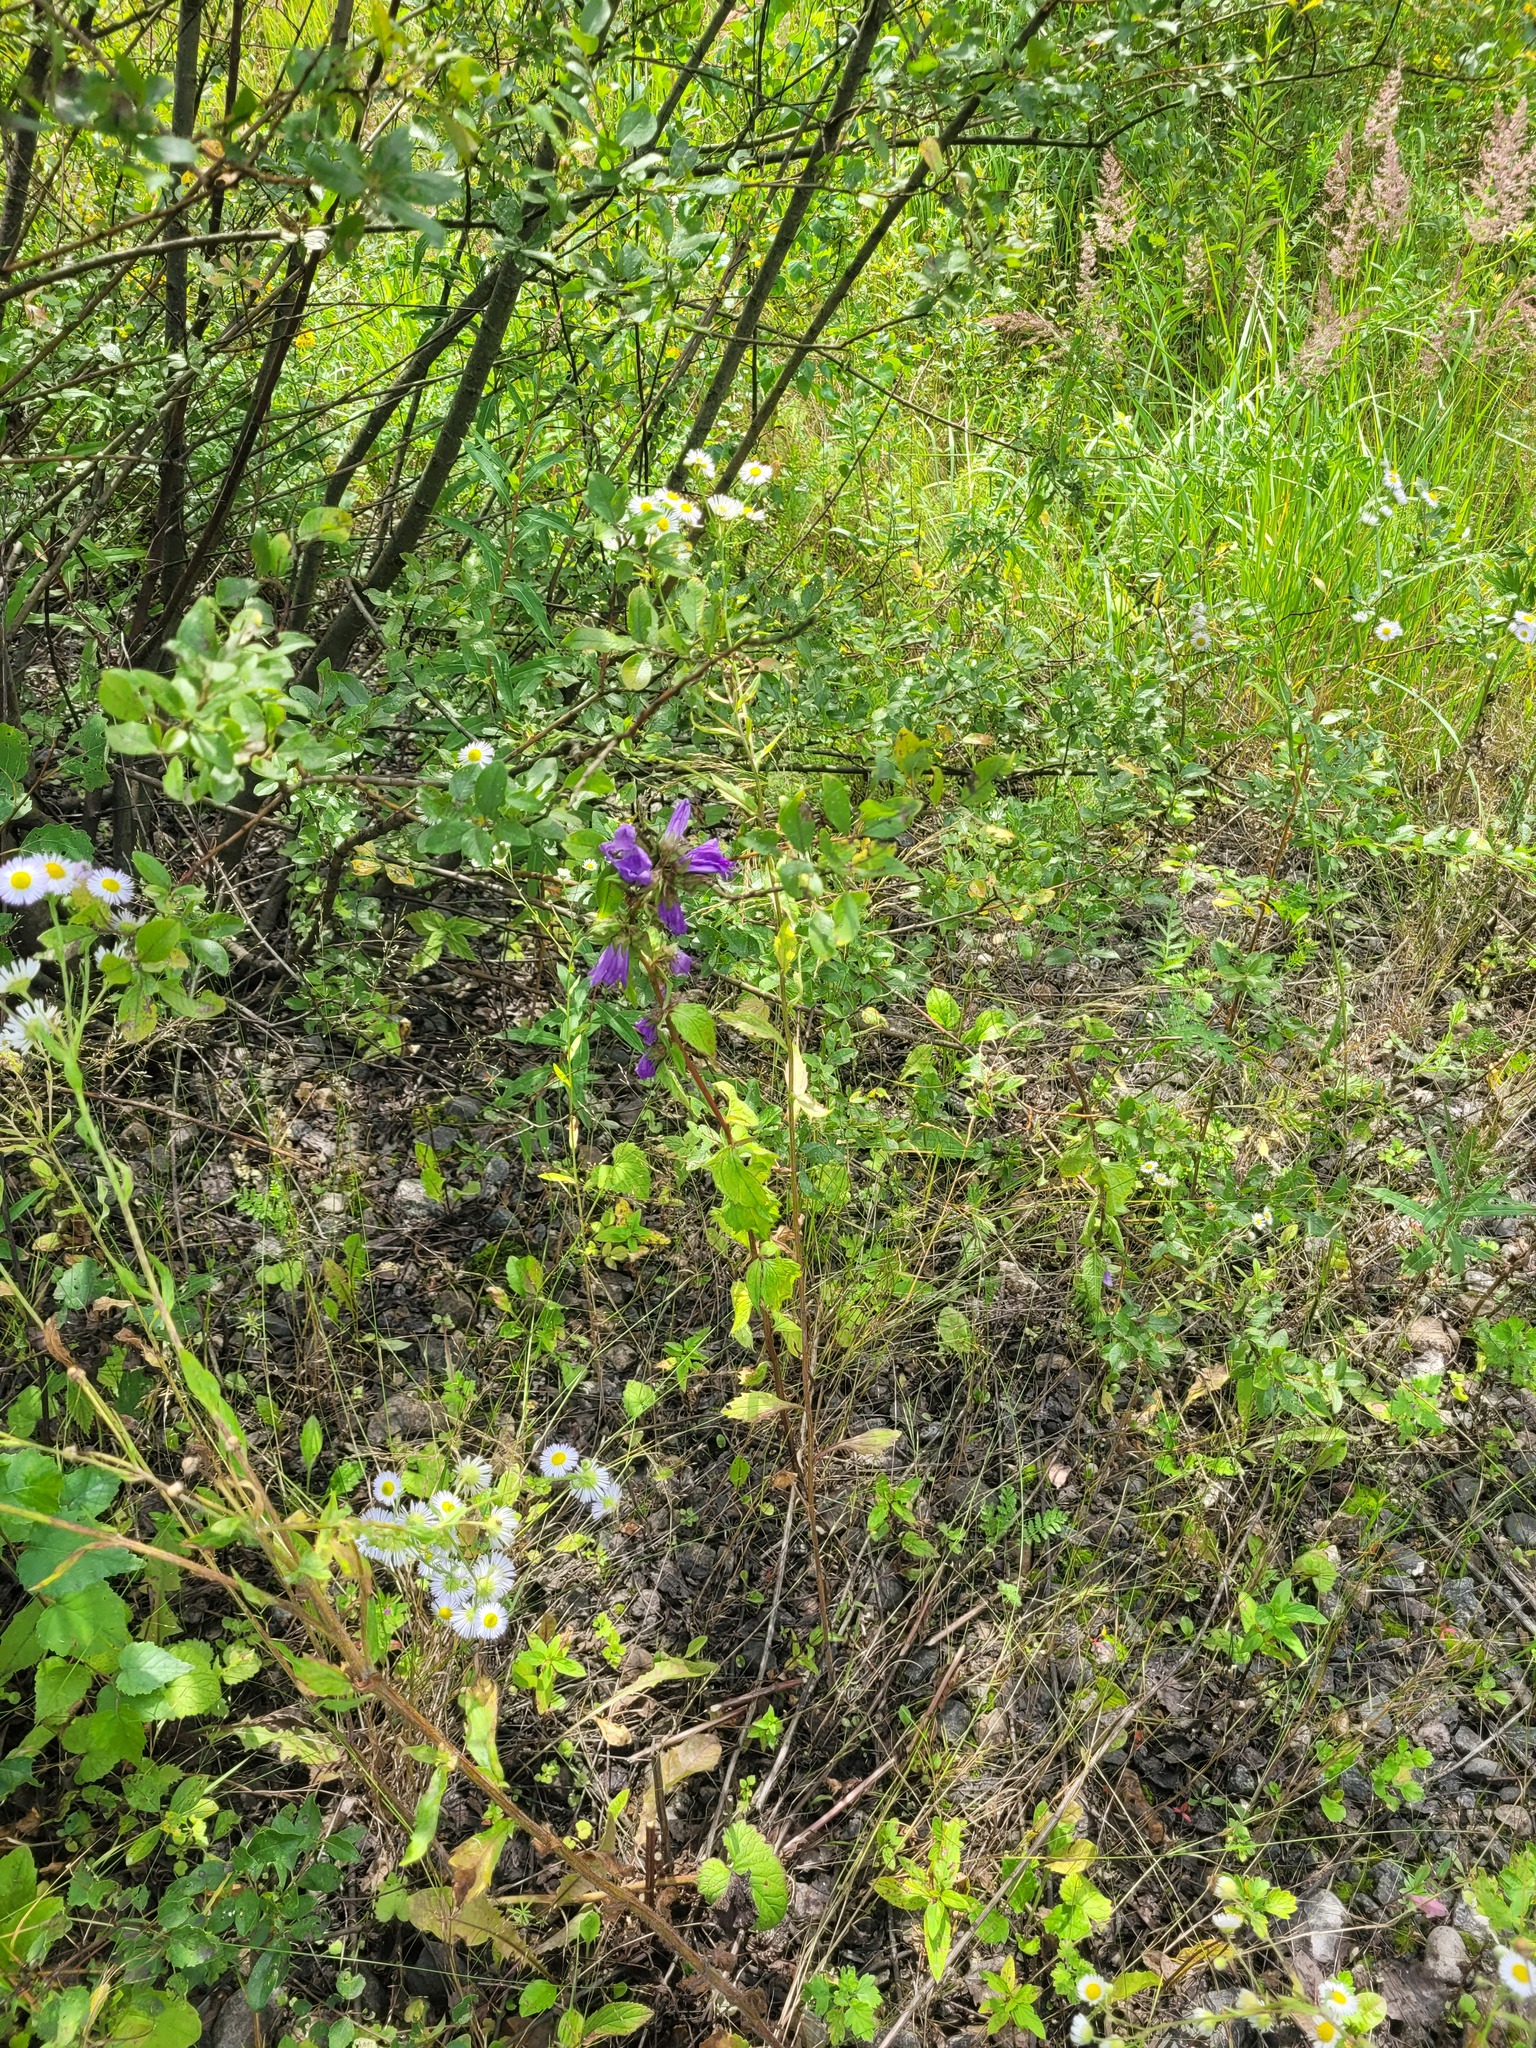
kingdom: Plantae
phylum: Tracheophyta
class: Magnoliopsida
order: Asterales
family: Campanulaceae
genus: Campanula
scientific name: Campanula trachelium
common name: Nettle-leaved bellflower
